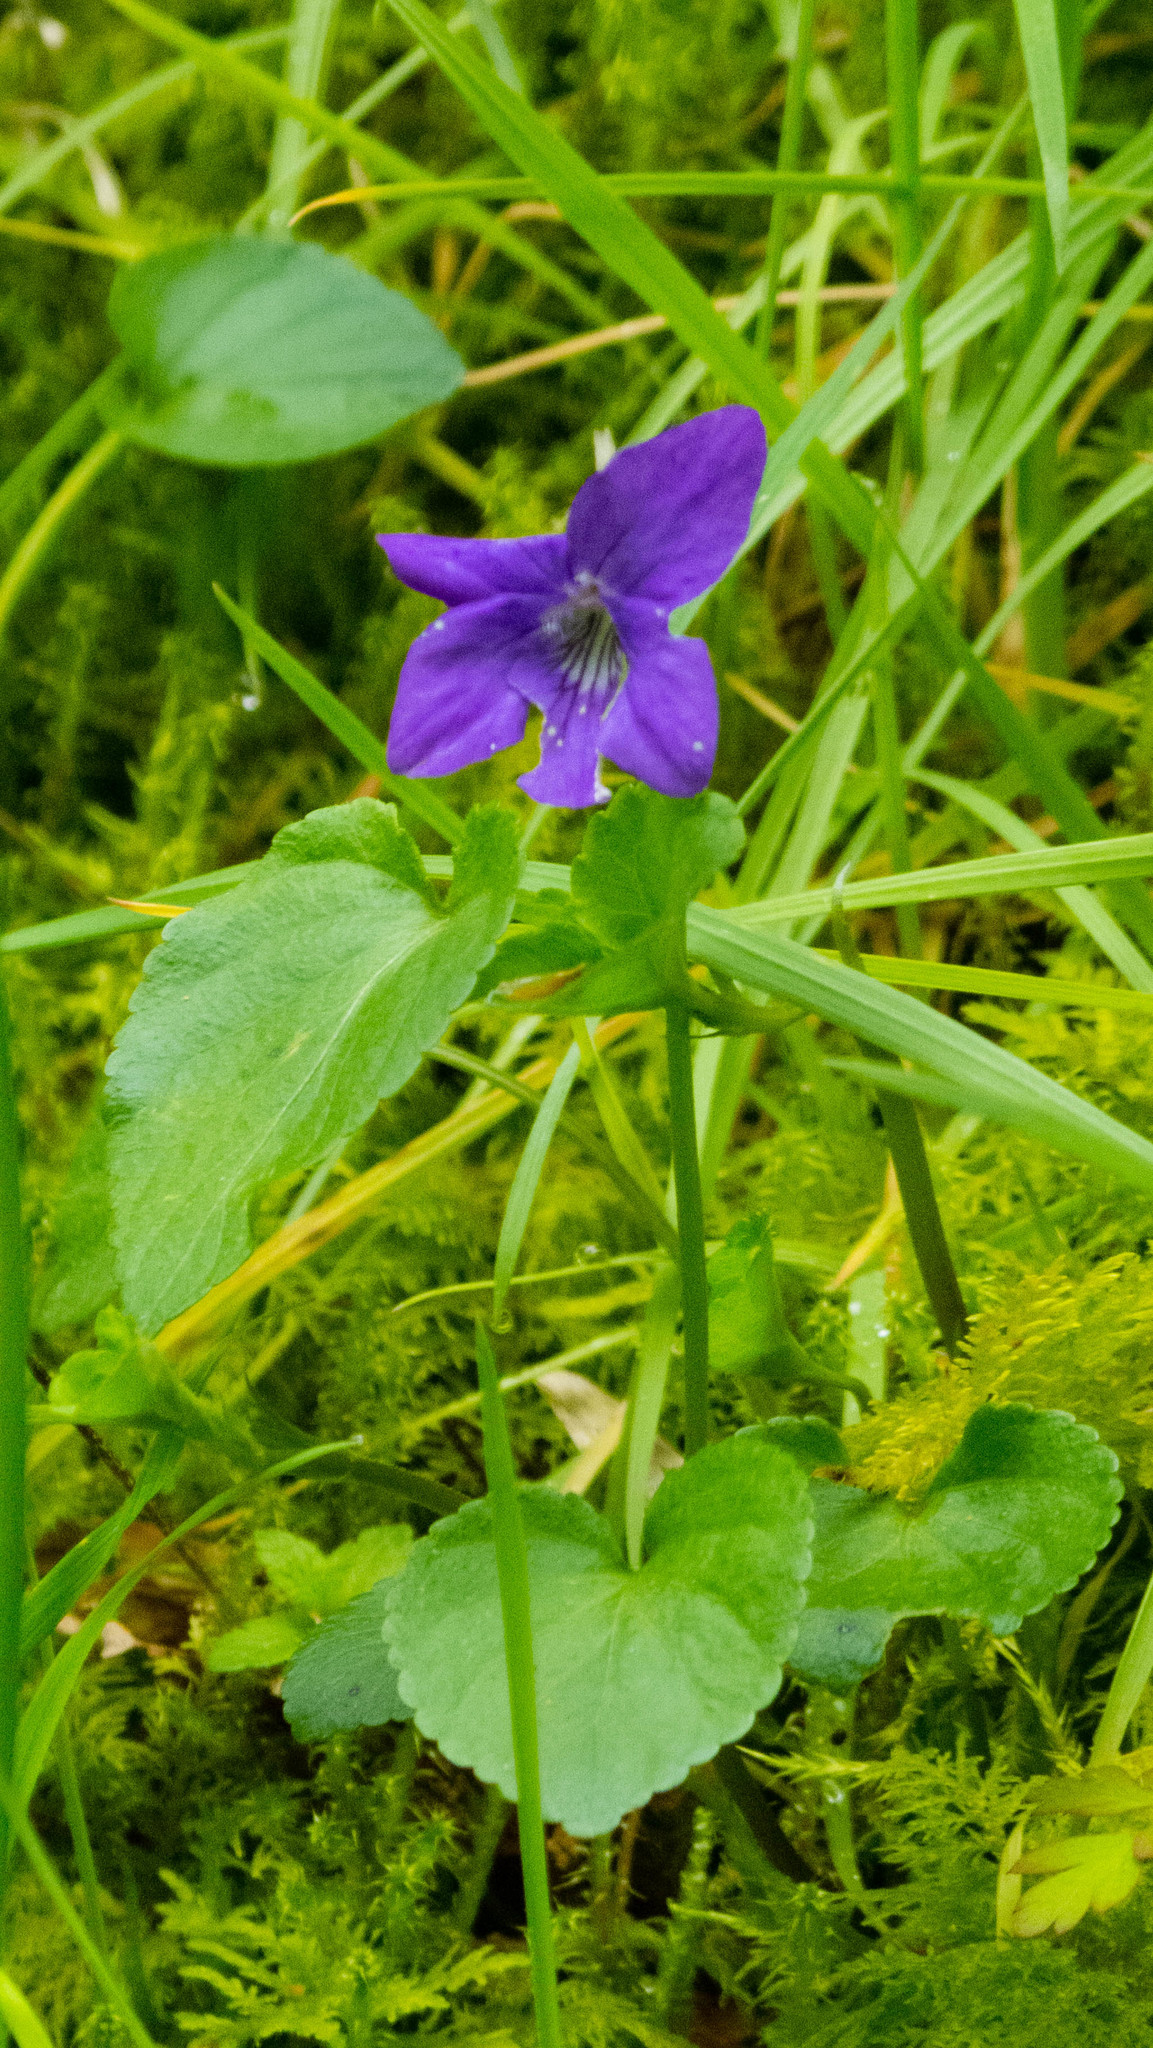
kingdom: Plantae
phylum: Tracheophyta
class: Magnoliopsida
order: Malpighiales
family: Violaceae
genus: Viola
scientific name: Viola riviniana
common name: Common dog-violet
